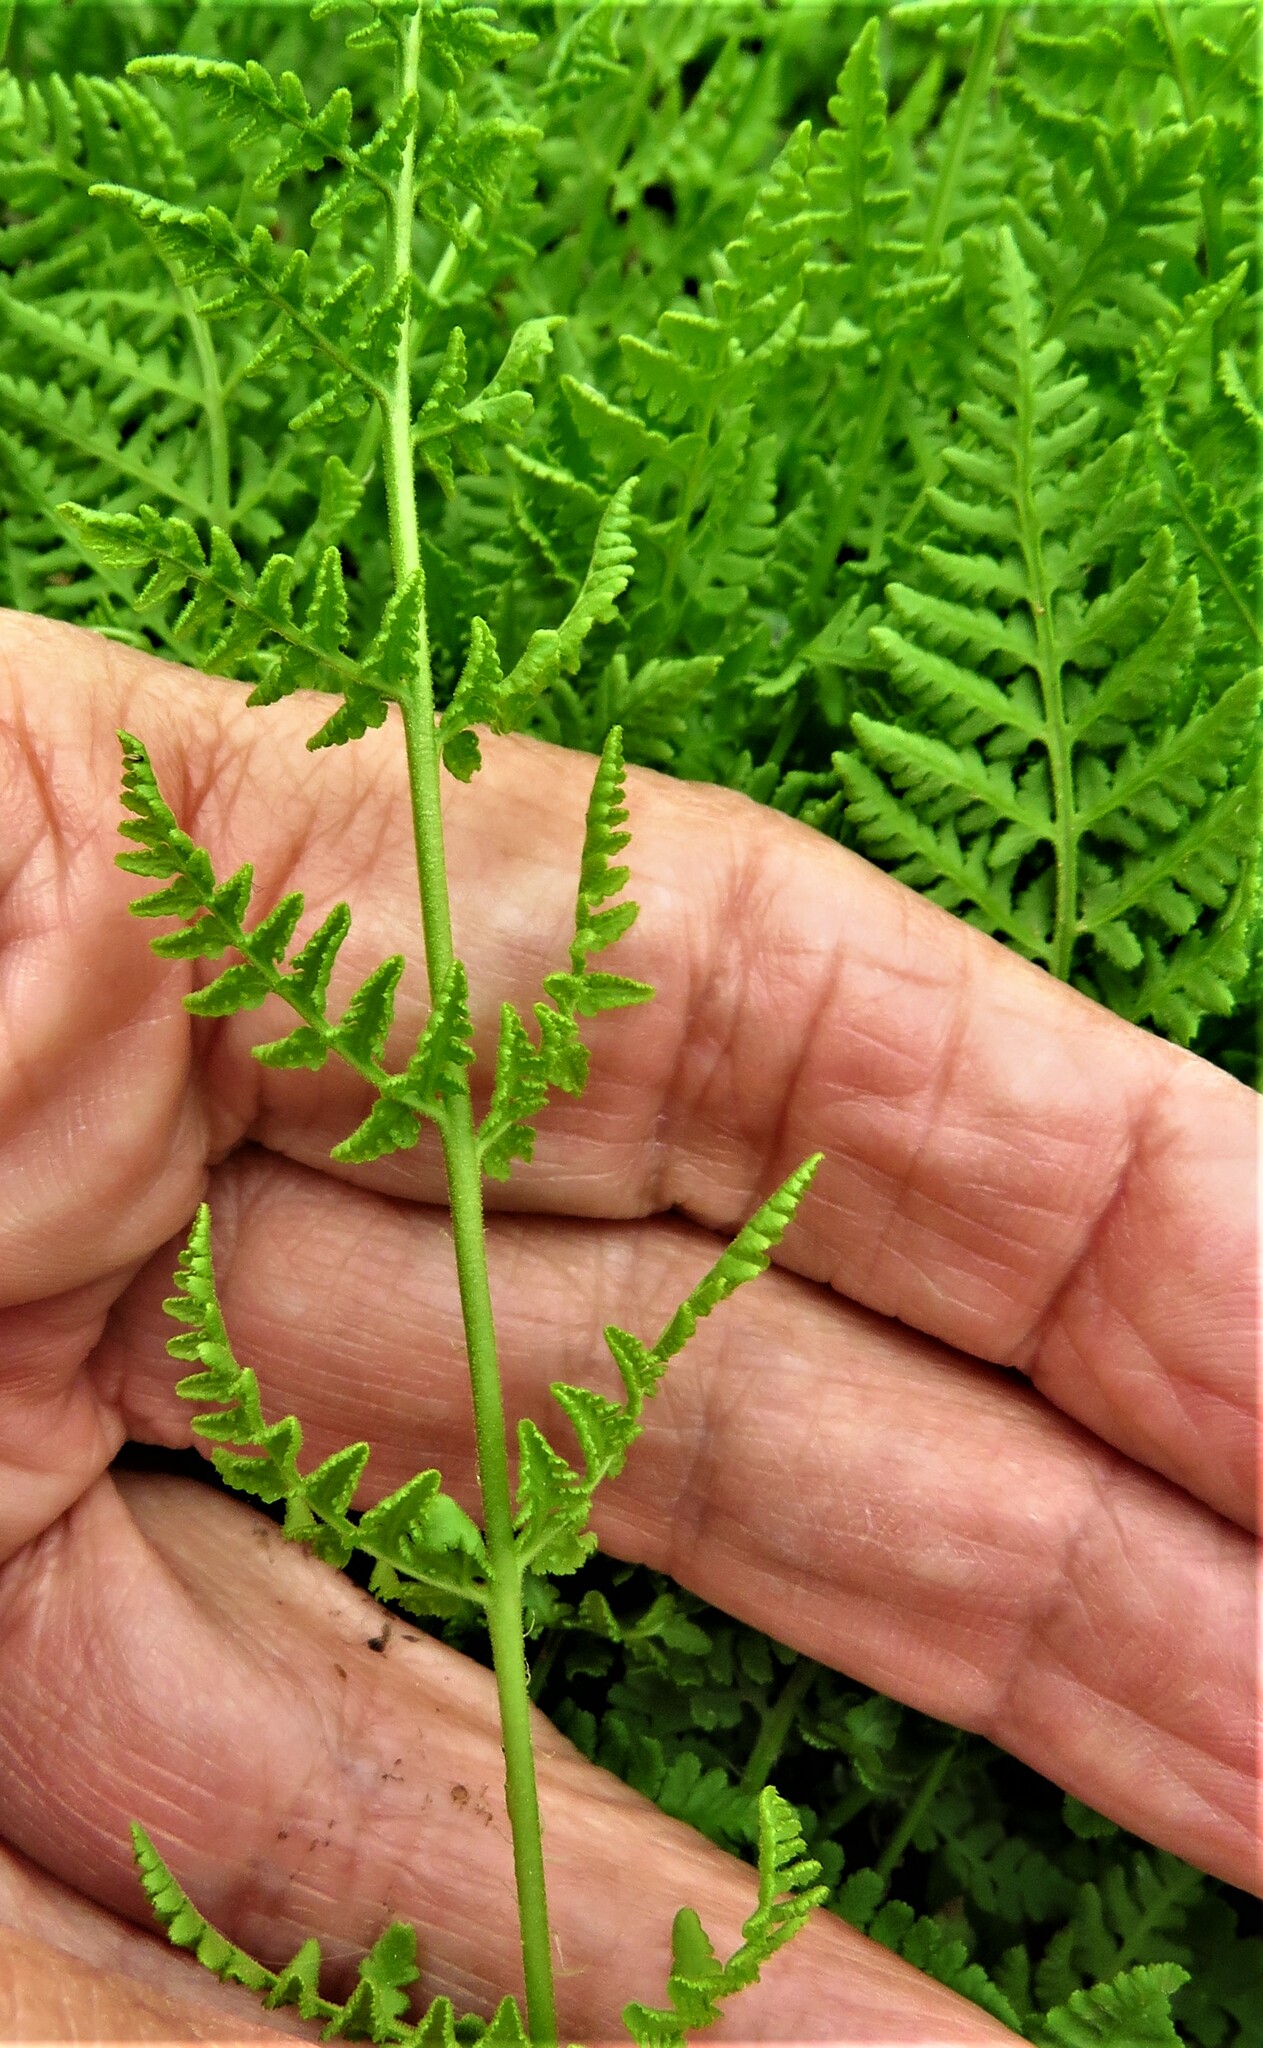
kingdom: Plantae
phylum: Tracheophyta
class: Polypodiopsida
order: Polypodiales
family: Woodsiaceae
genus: Physematium
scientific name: Physematium obtusum
